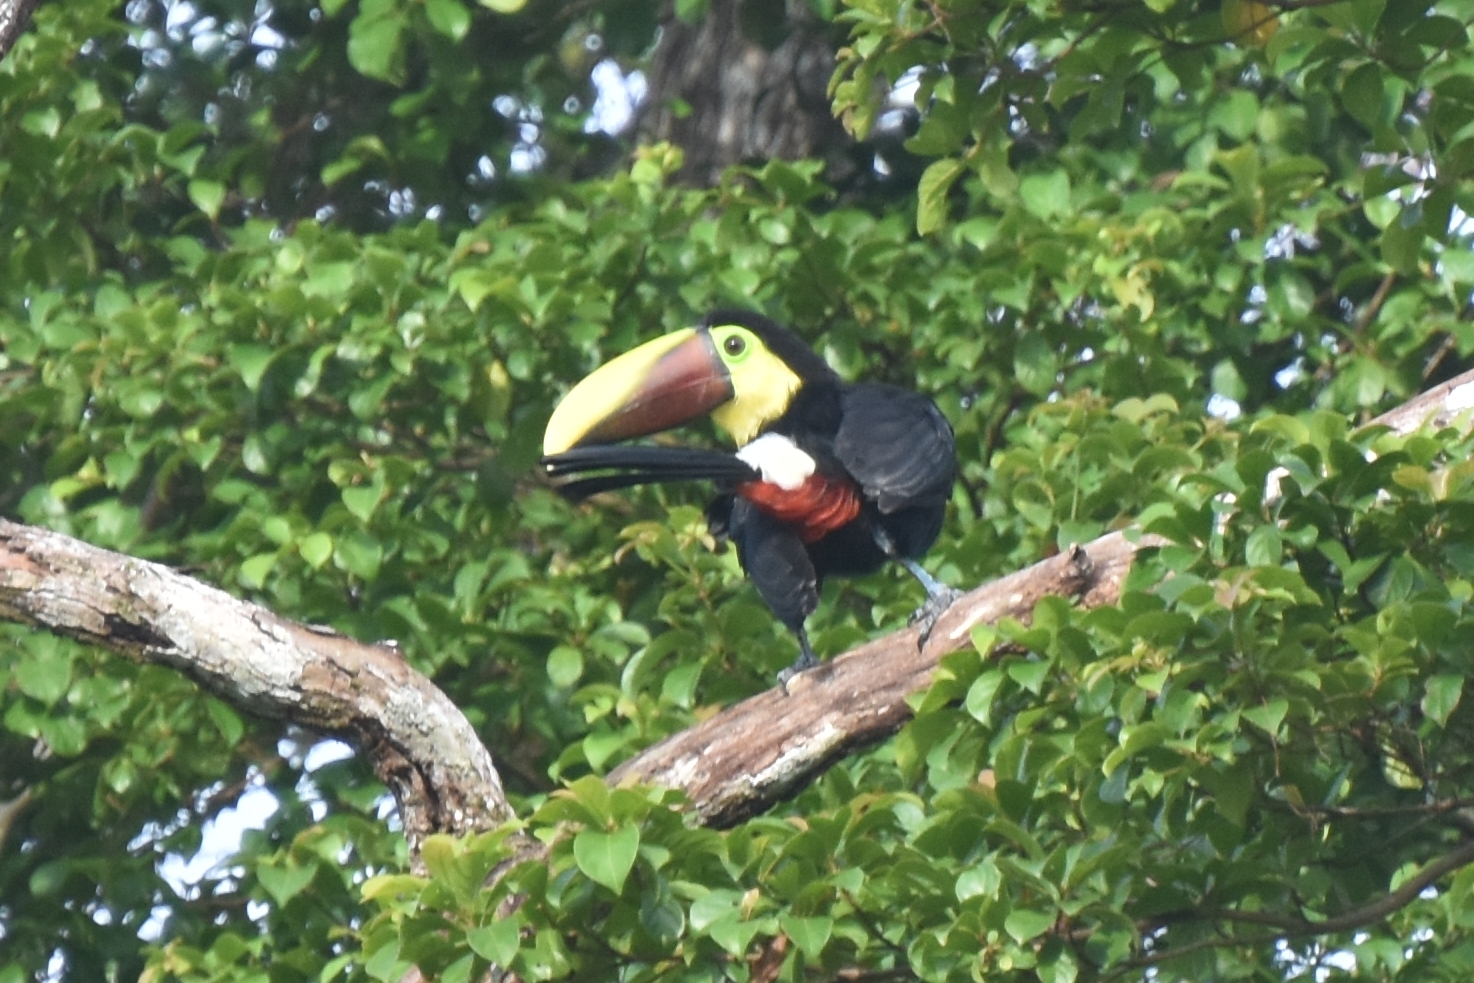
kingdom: Animalia
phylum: Chordata
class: Aves
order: Piciformes
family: Ramphastidae
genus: Ramphastos
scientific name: Ramphastos ambiguus
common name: Yellow-throated toucan
